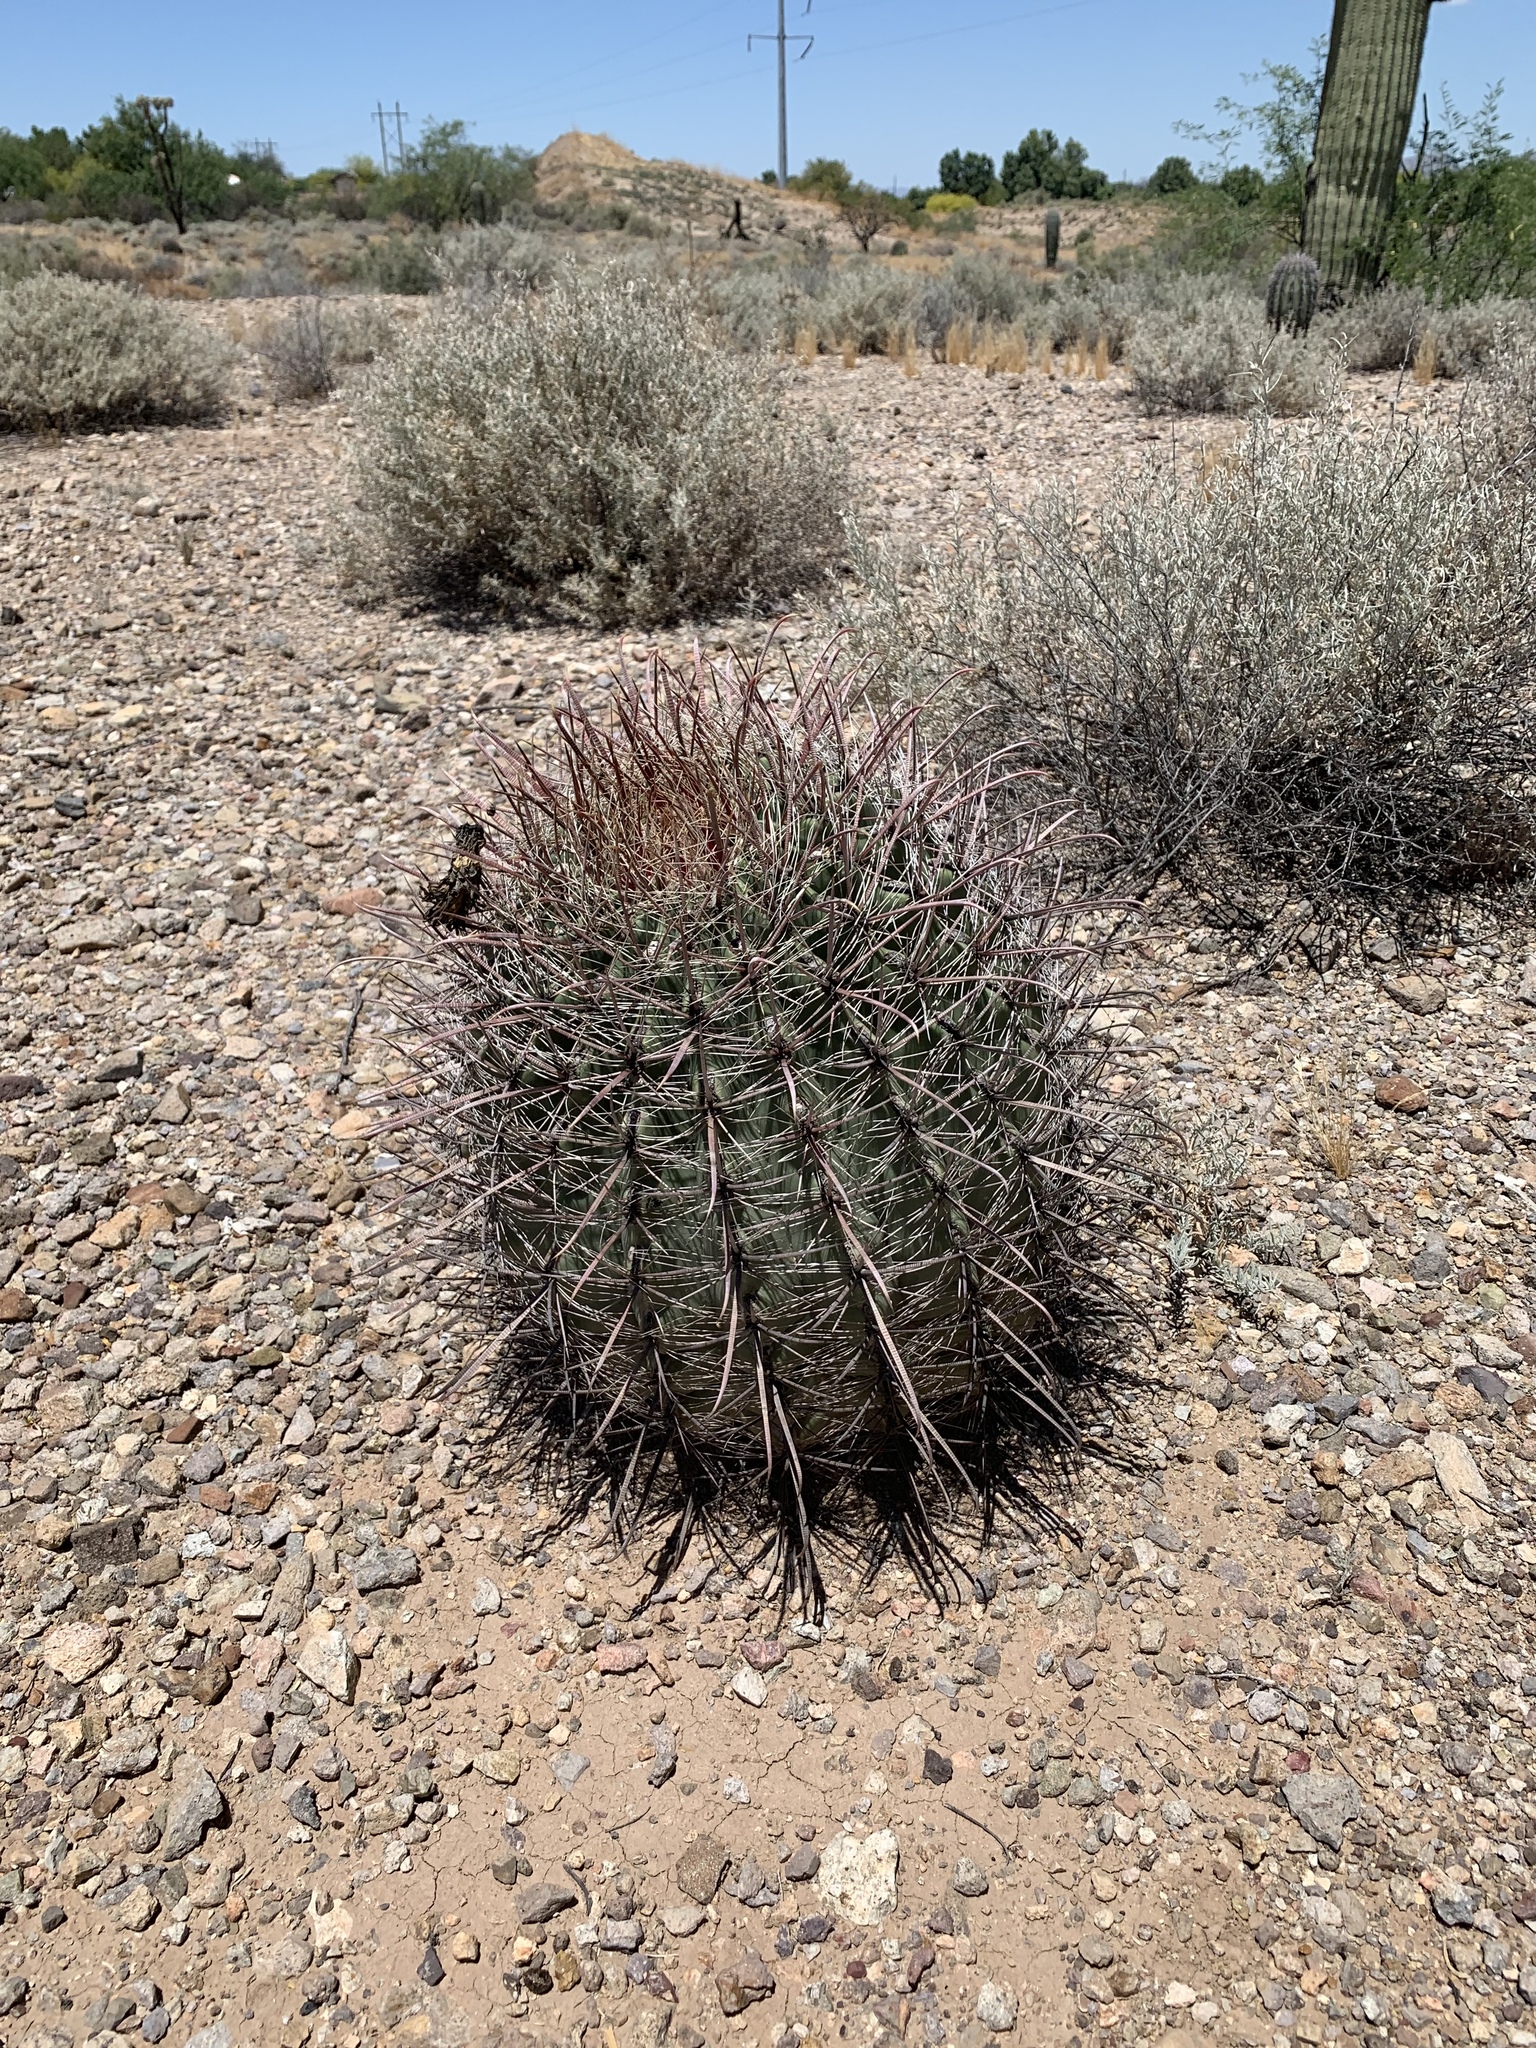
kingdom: Plantae
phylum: Tracheophyta
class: Magnoliopsida
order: Caryophyllales
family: Cactaceae
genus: Ferocactus
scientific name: Ferocactus wislizeni
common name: Candy barrel cactus
